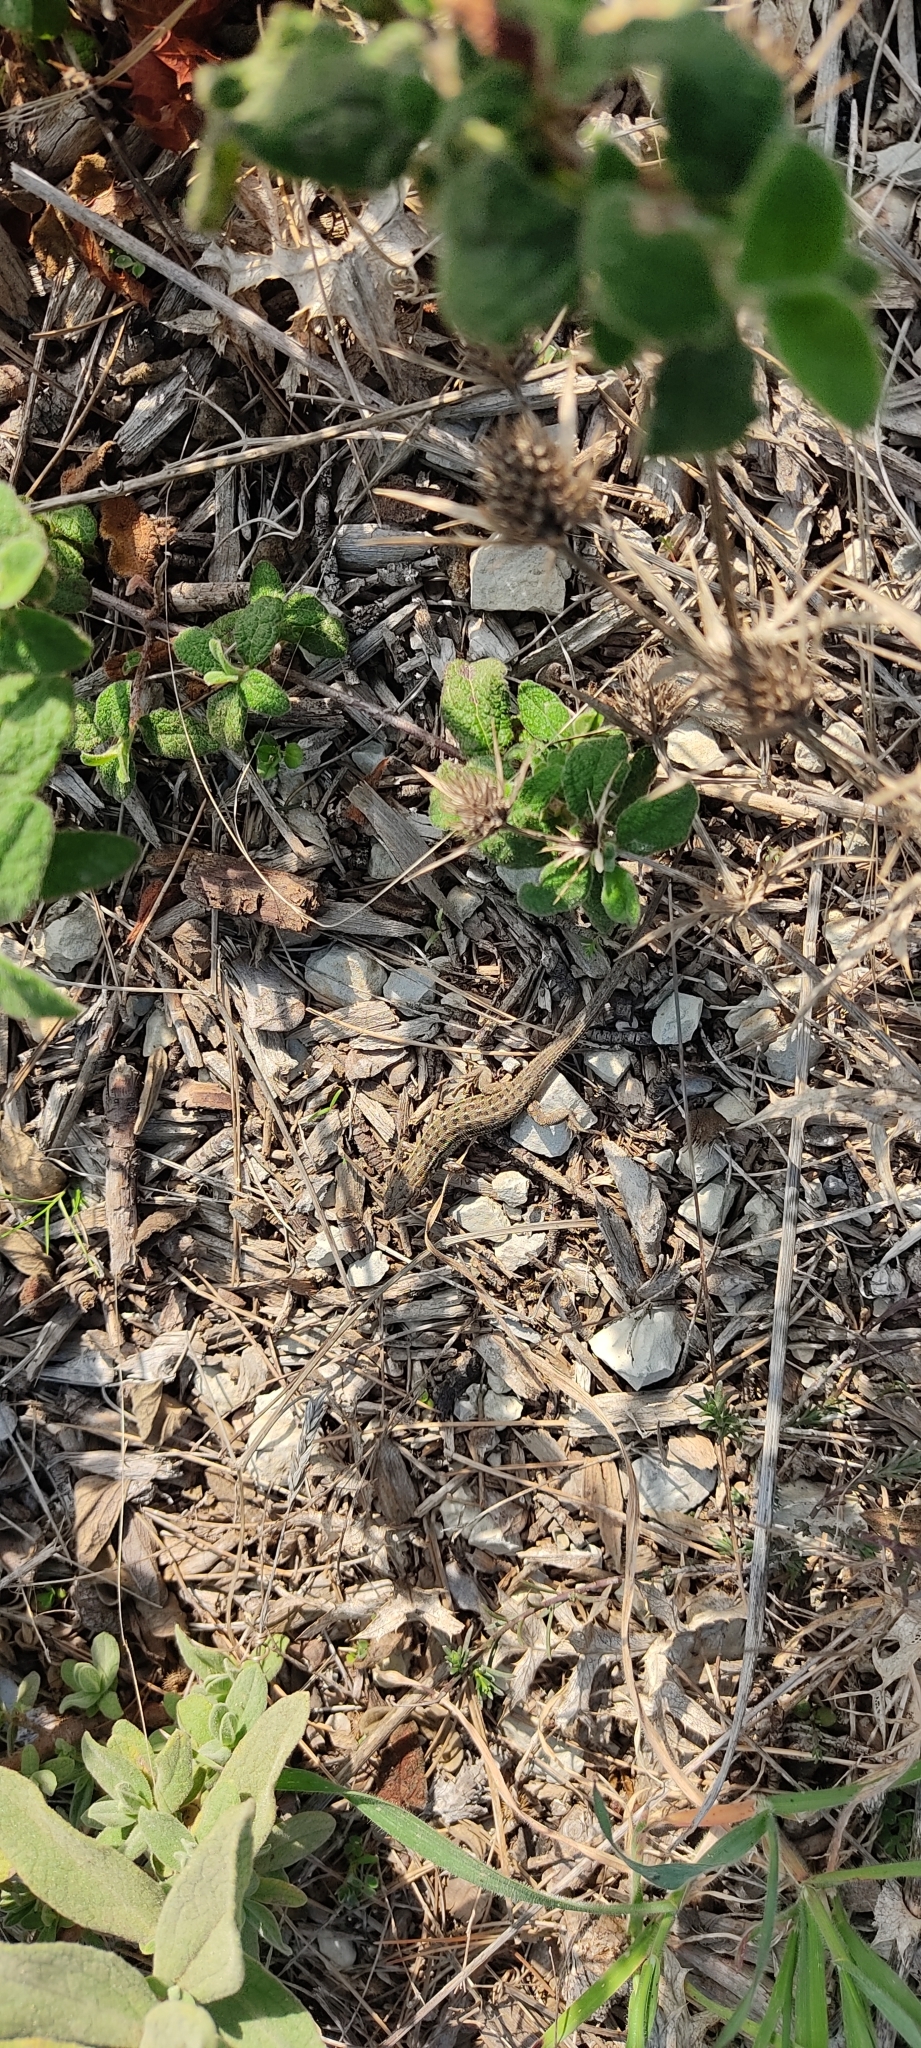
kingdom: Animalia
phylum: Chordata
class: Squamata
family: Lacertidae
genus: Psammodromus
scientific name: Psammodromus edwarsianus
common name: East iberian psammodromus
